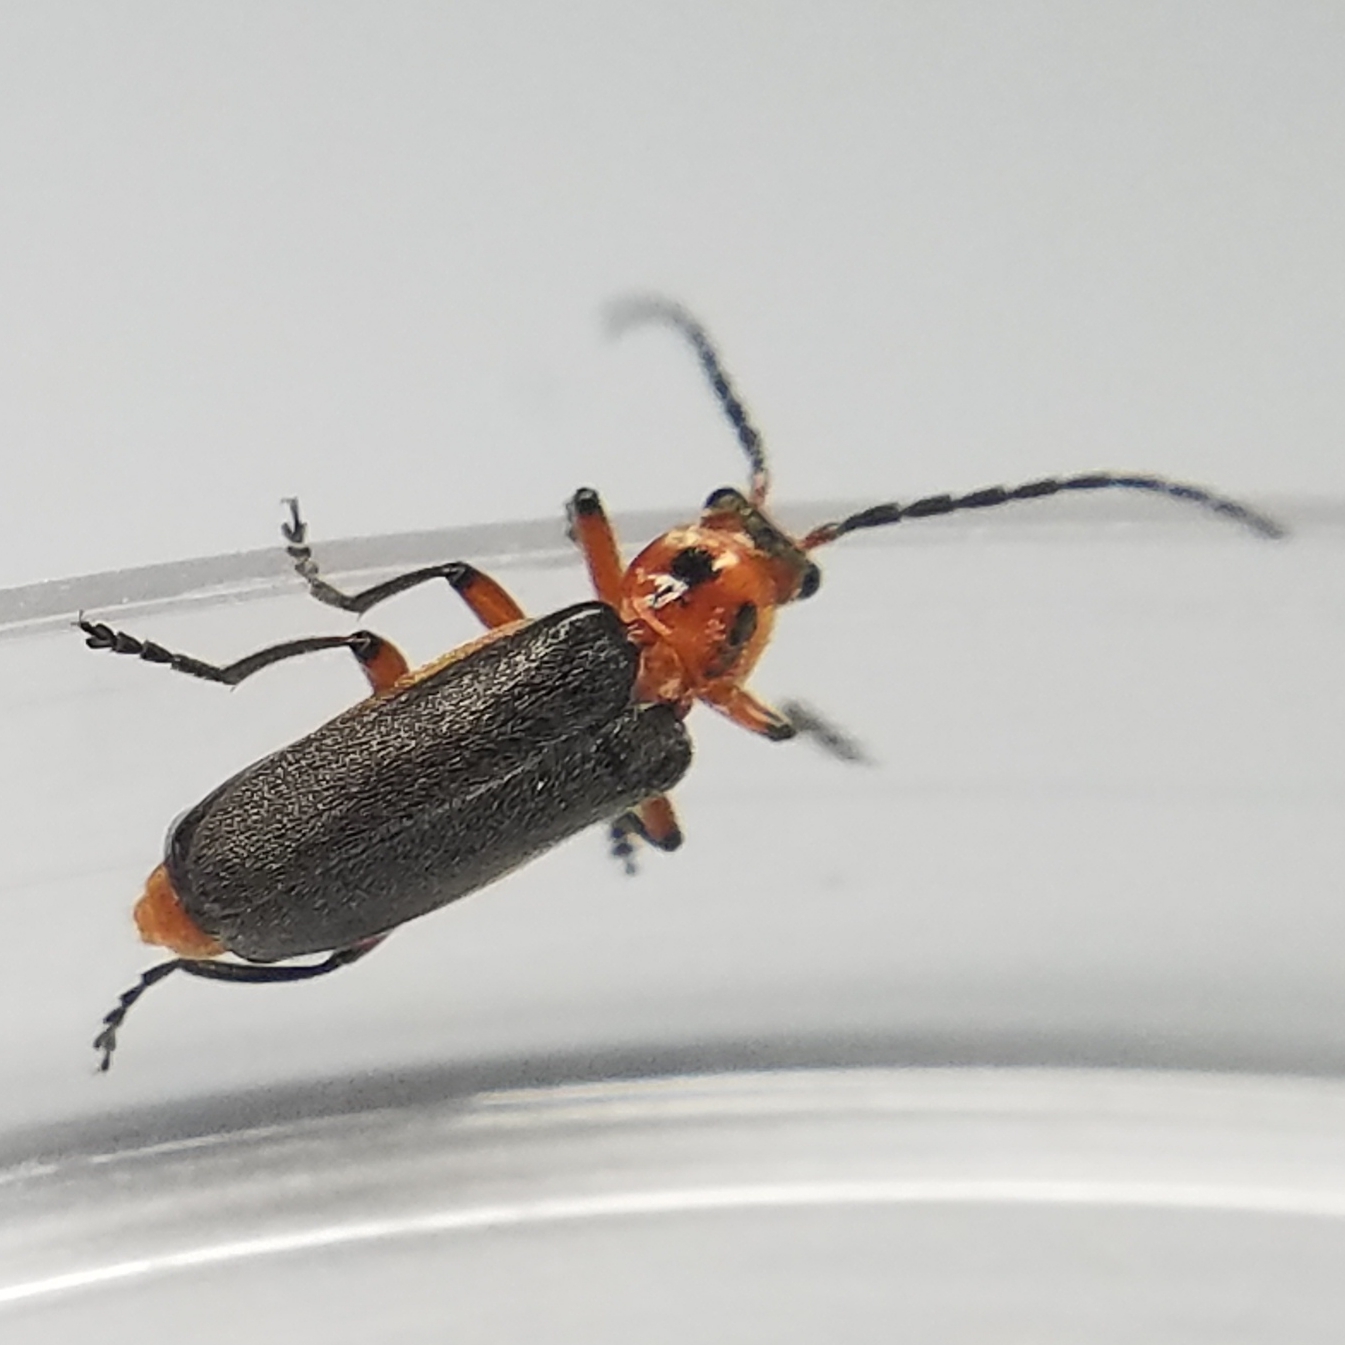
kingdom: Animalia
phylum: Arthropoda
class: Insecta
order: Coleoptera
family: Cantharidae
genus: Atalantycha
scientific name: Atalantycha bilineata
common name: Two-lined leatherwing
